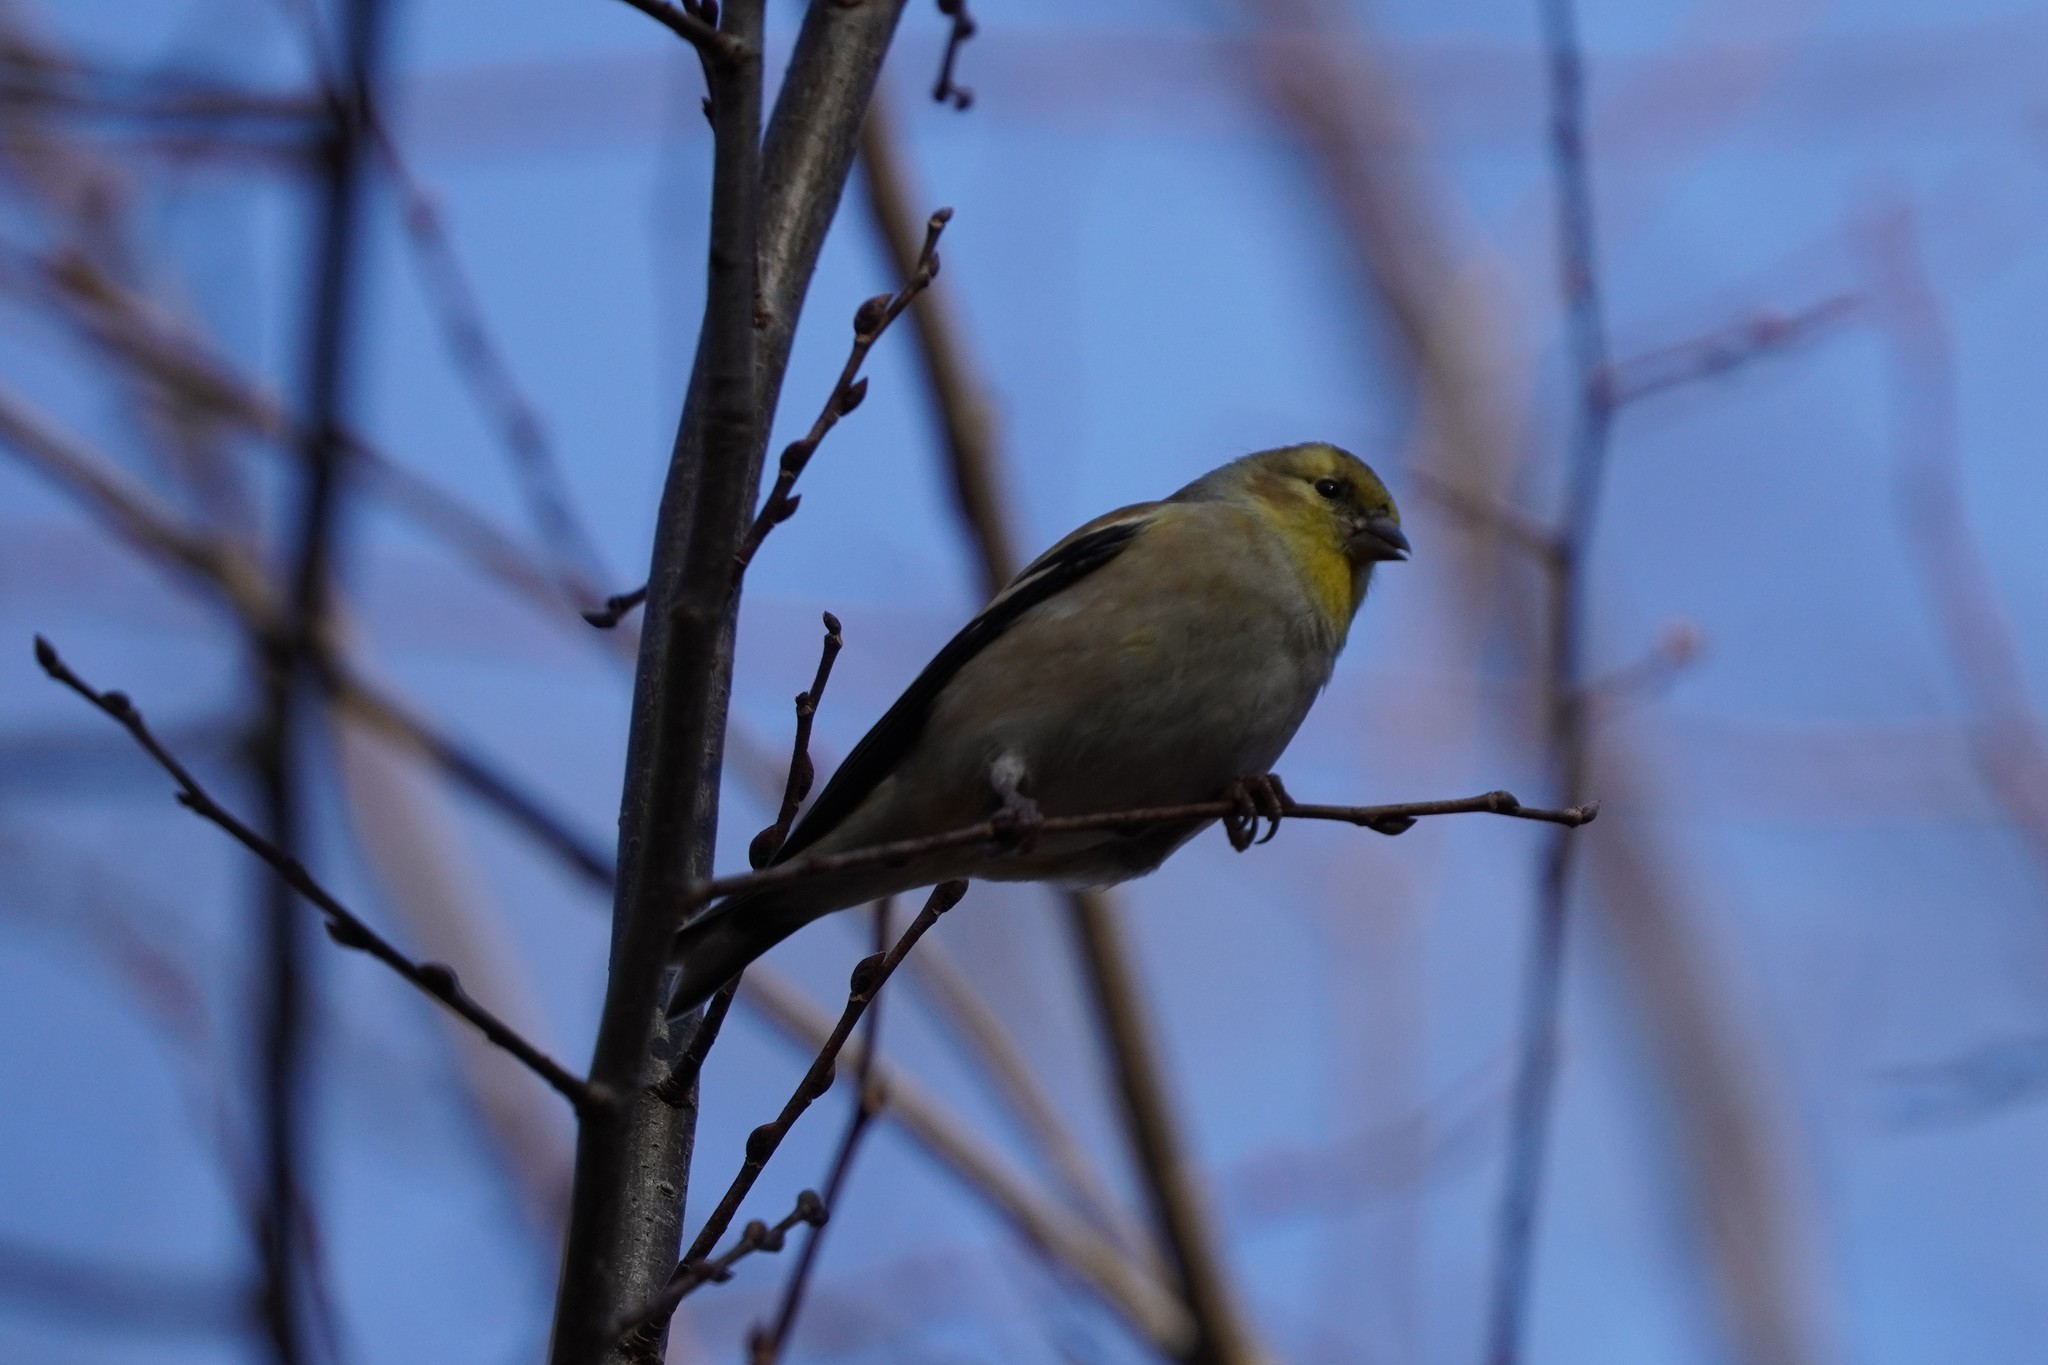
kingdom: Animalia
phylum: Chordata
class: Aves
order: Passeriformes
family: Fringillidae
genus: Spinus
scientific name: Spinus tristis
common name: American goldfinch
